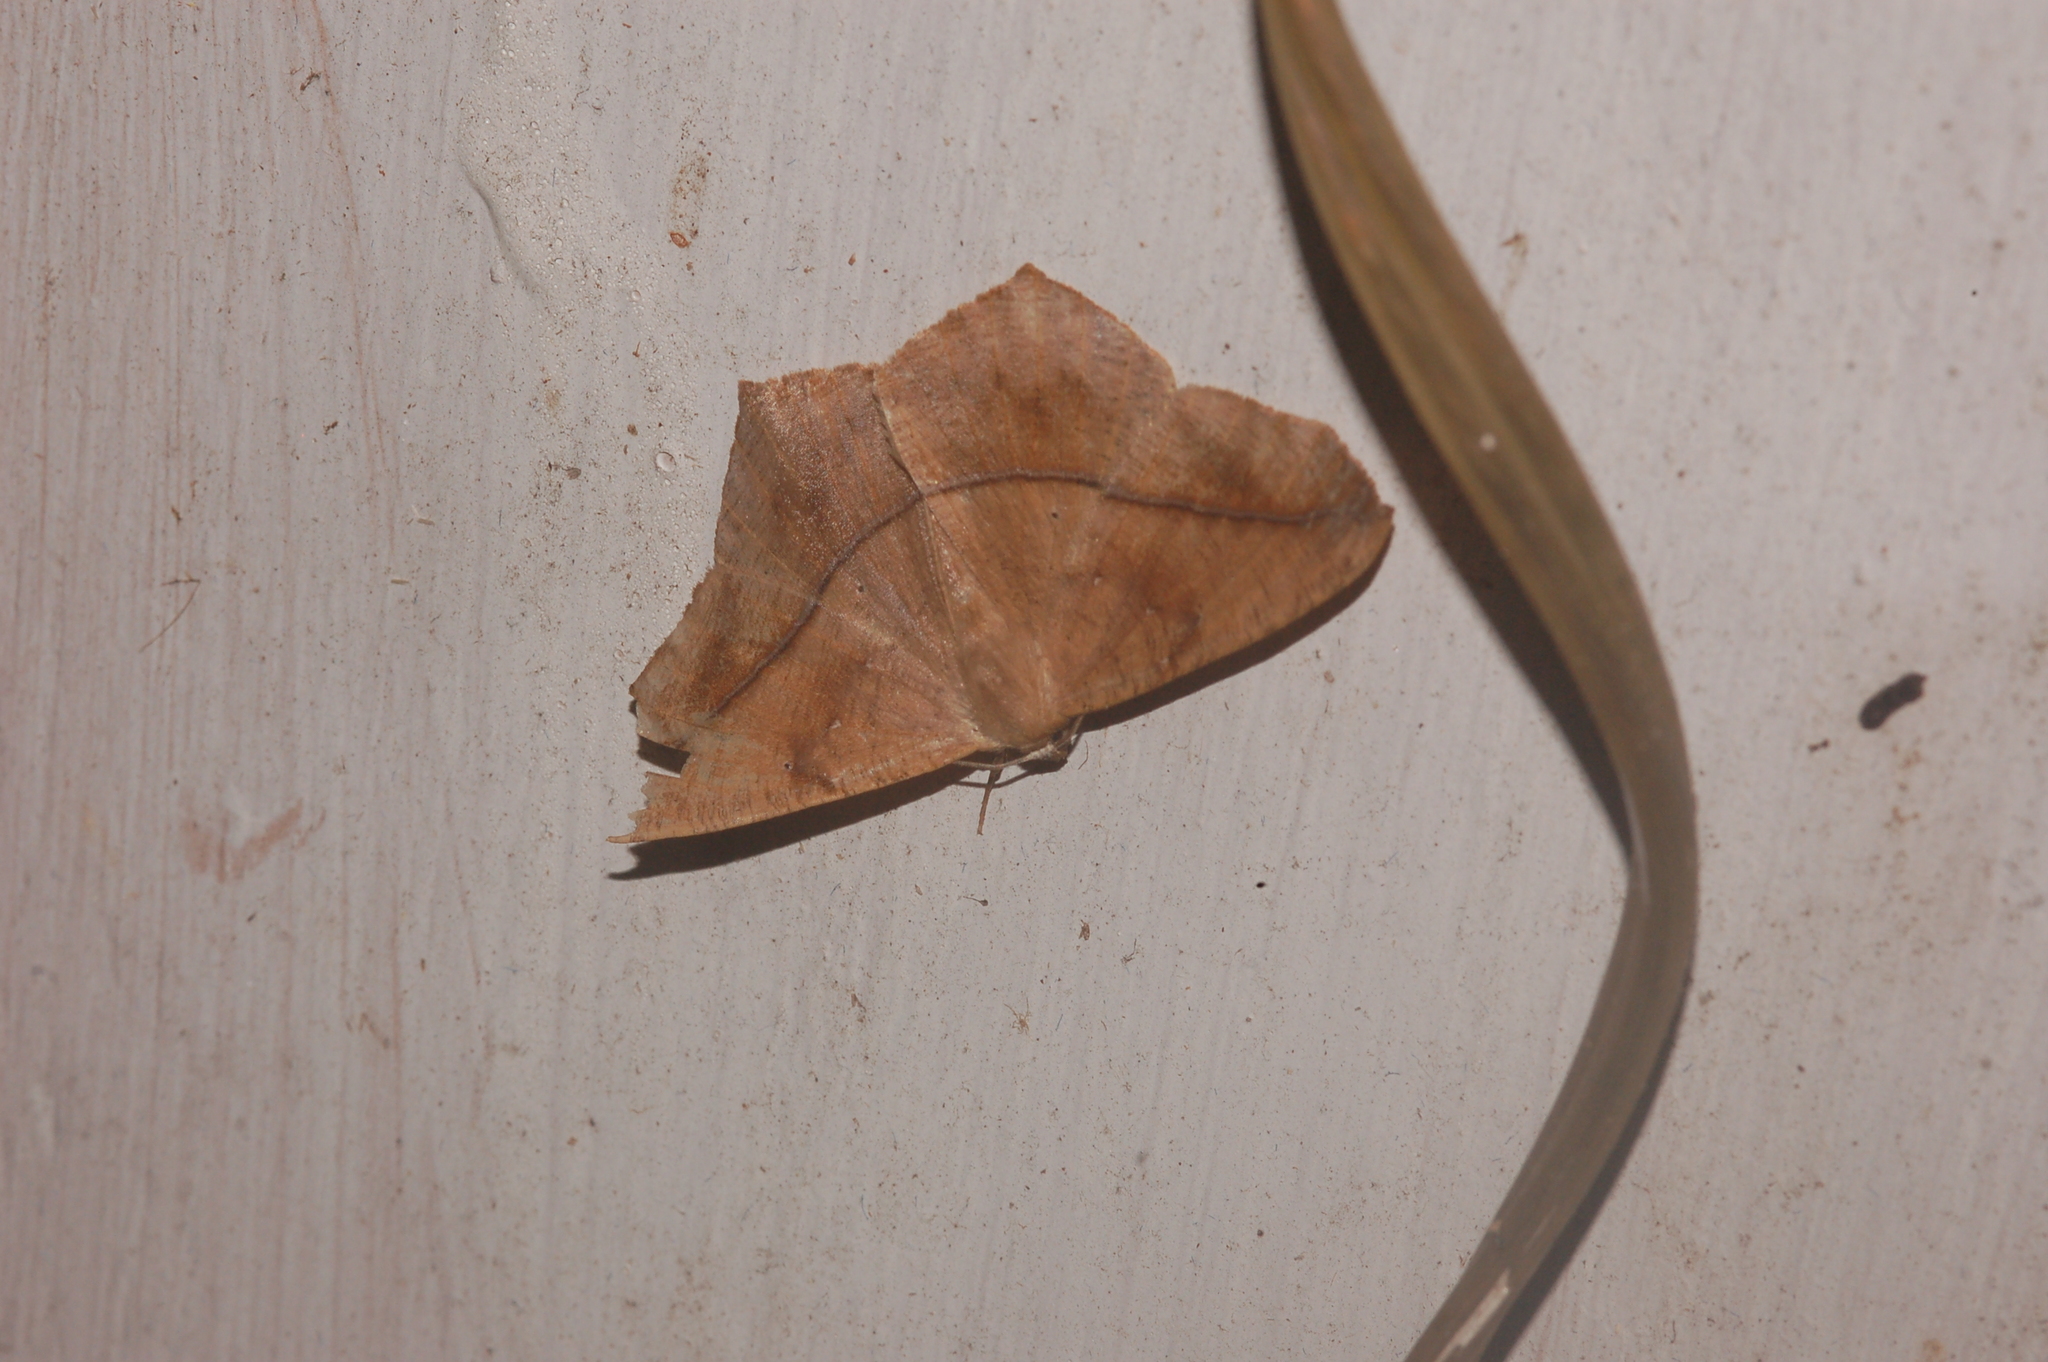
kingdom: Animalia
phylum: Arthropoda
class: Insecta
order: Lepidoptera
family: Geometridae
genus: Prochoerodes
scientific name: Prochoerodes lineola
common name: Large maple spanworm
